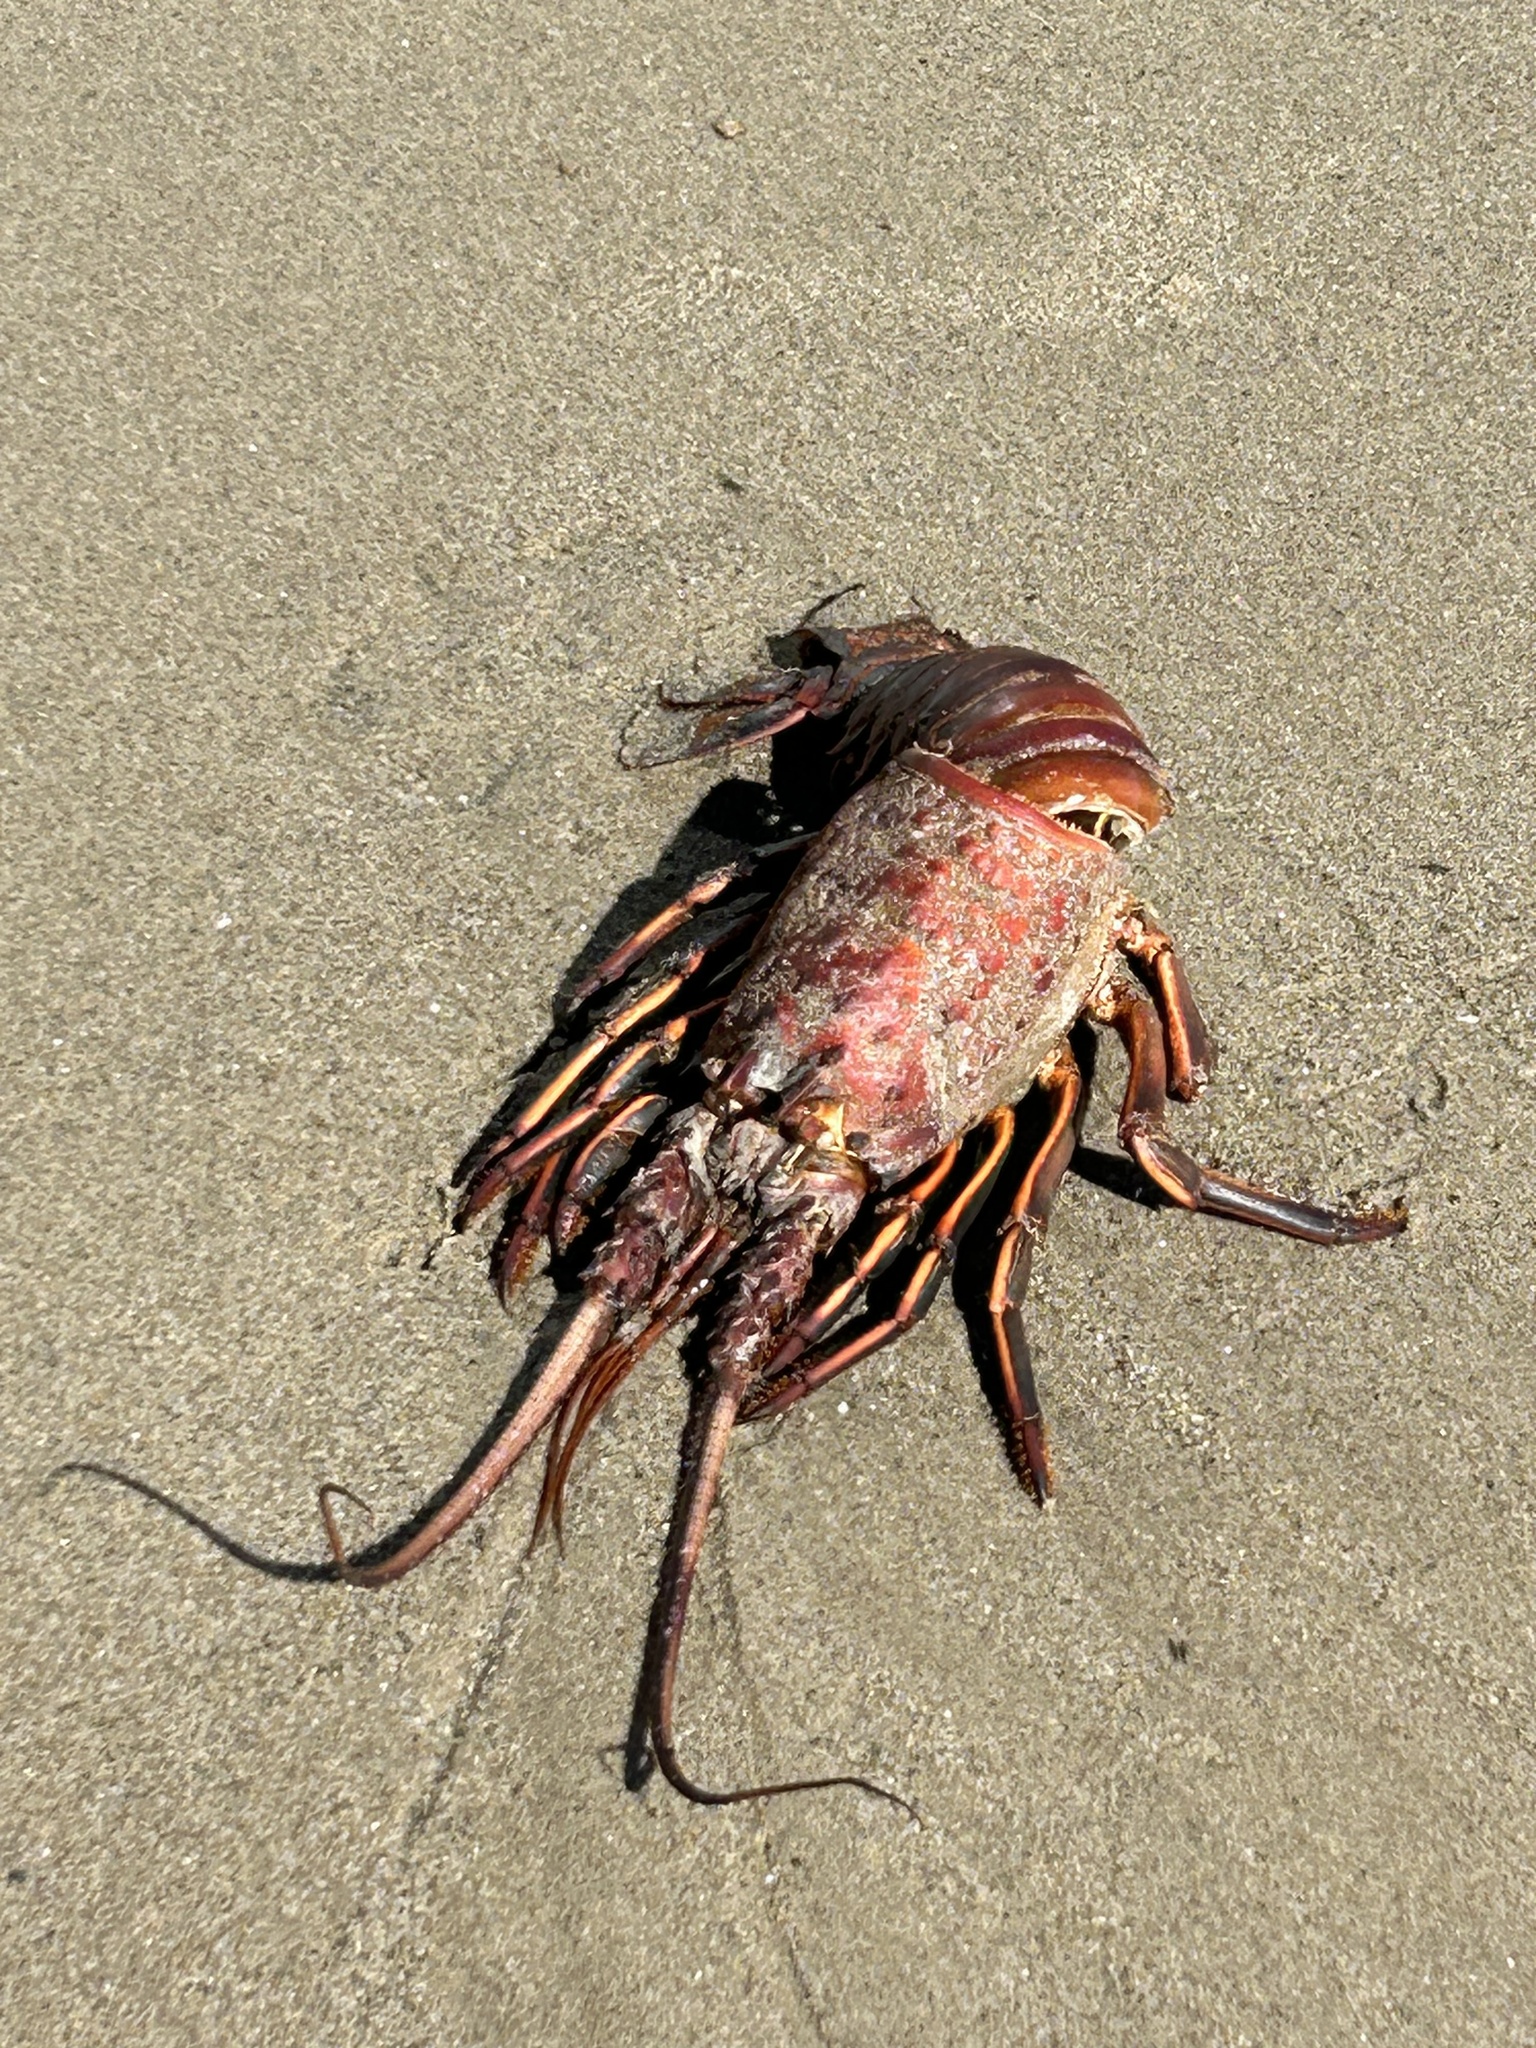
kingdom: Animalia
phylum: Arthropoda
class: Malacostraca
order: Decapoda
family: Palinuridae
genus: Panulirus
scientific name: Panulirus interruptus
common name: California spiny lobster
